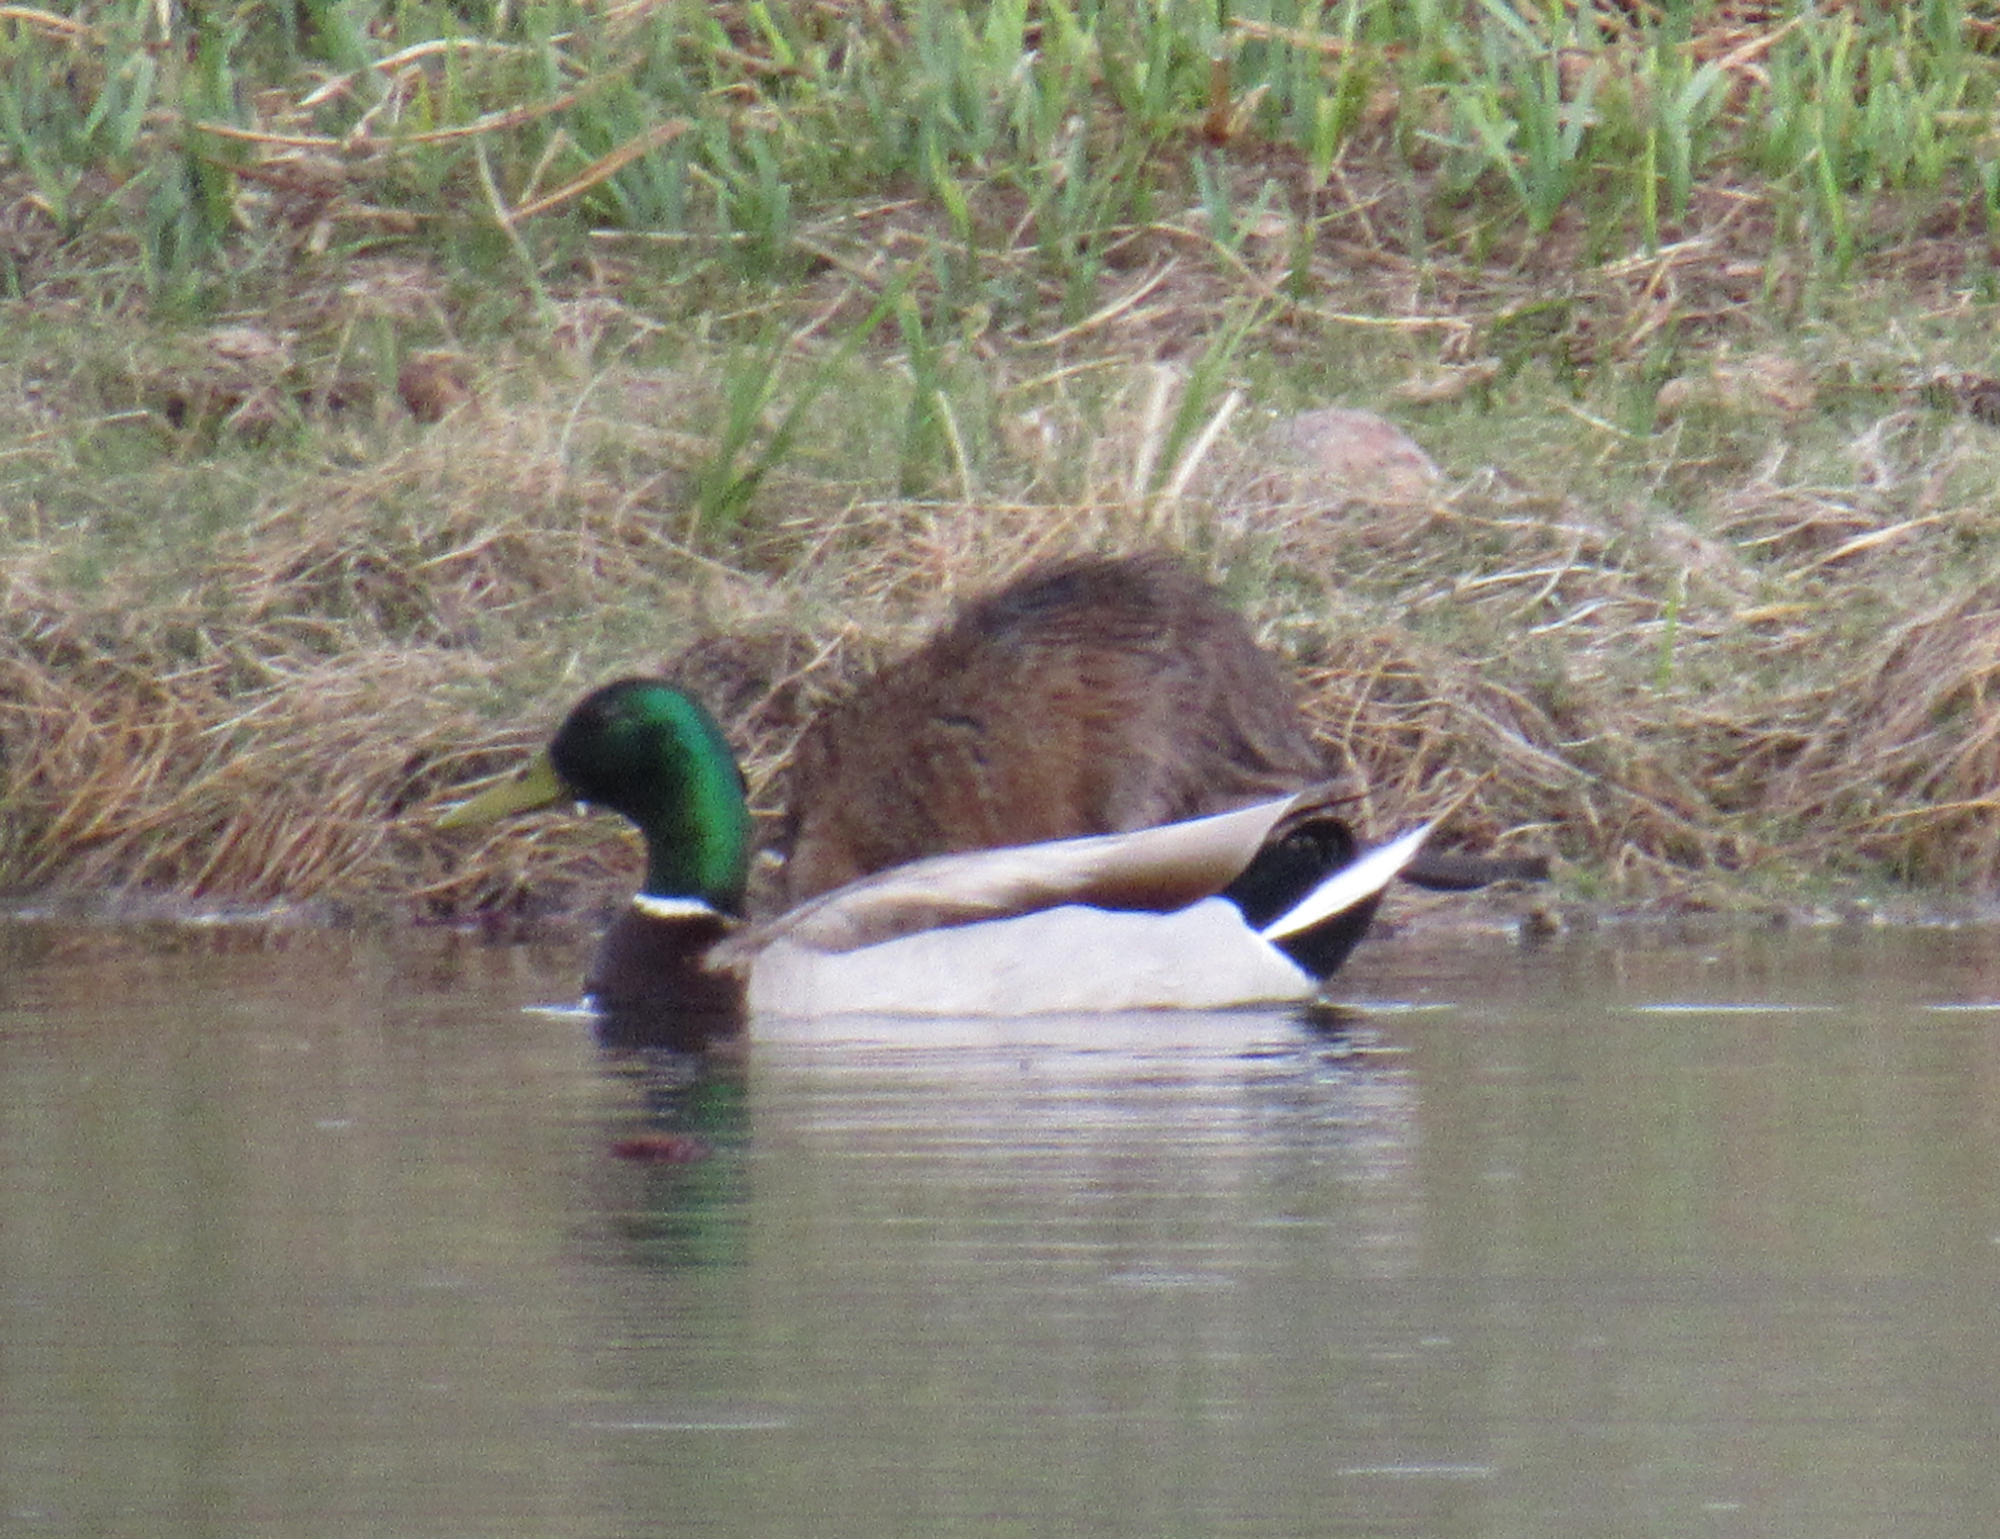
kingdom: Animalia
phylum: Chordata
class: Aves
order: Anseriformes
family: Anatidae
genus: Anas
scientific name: Anas platyrhynchos
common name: Mallard
